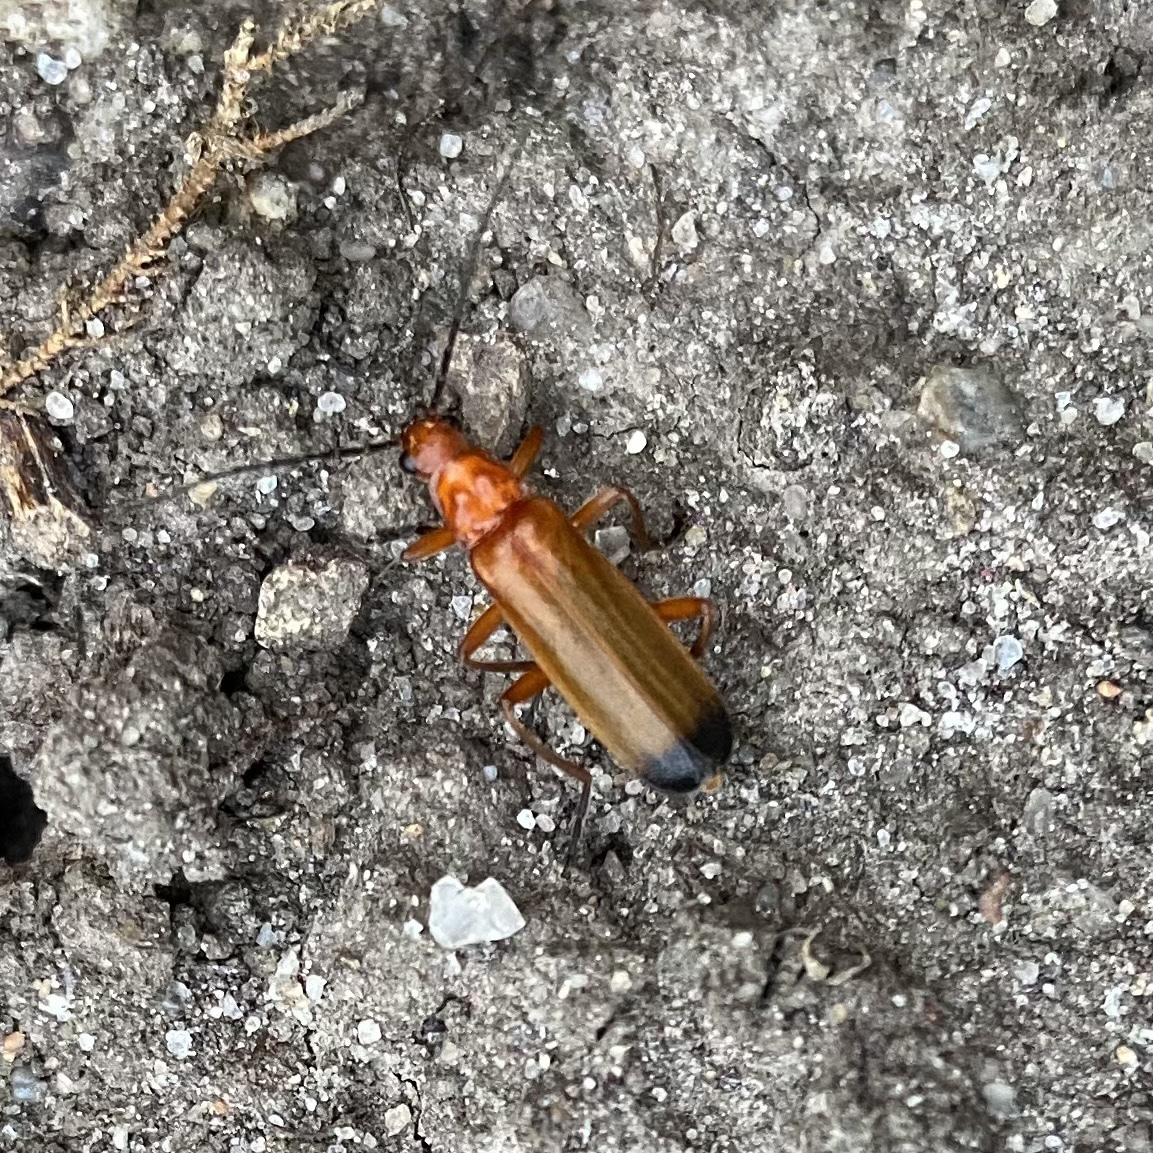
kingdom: Animalia
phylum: Arthropoda
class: Insecta
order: Coleoptera
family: Cantharidae
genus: Rhagonycha
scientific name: Rhagonycha fulva
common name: Common red soldier beetle
